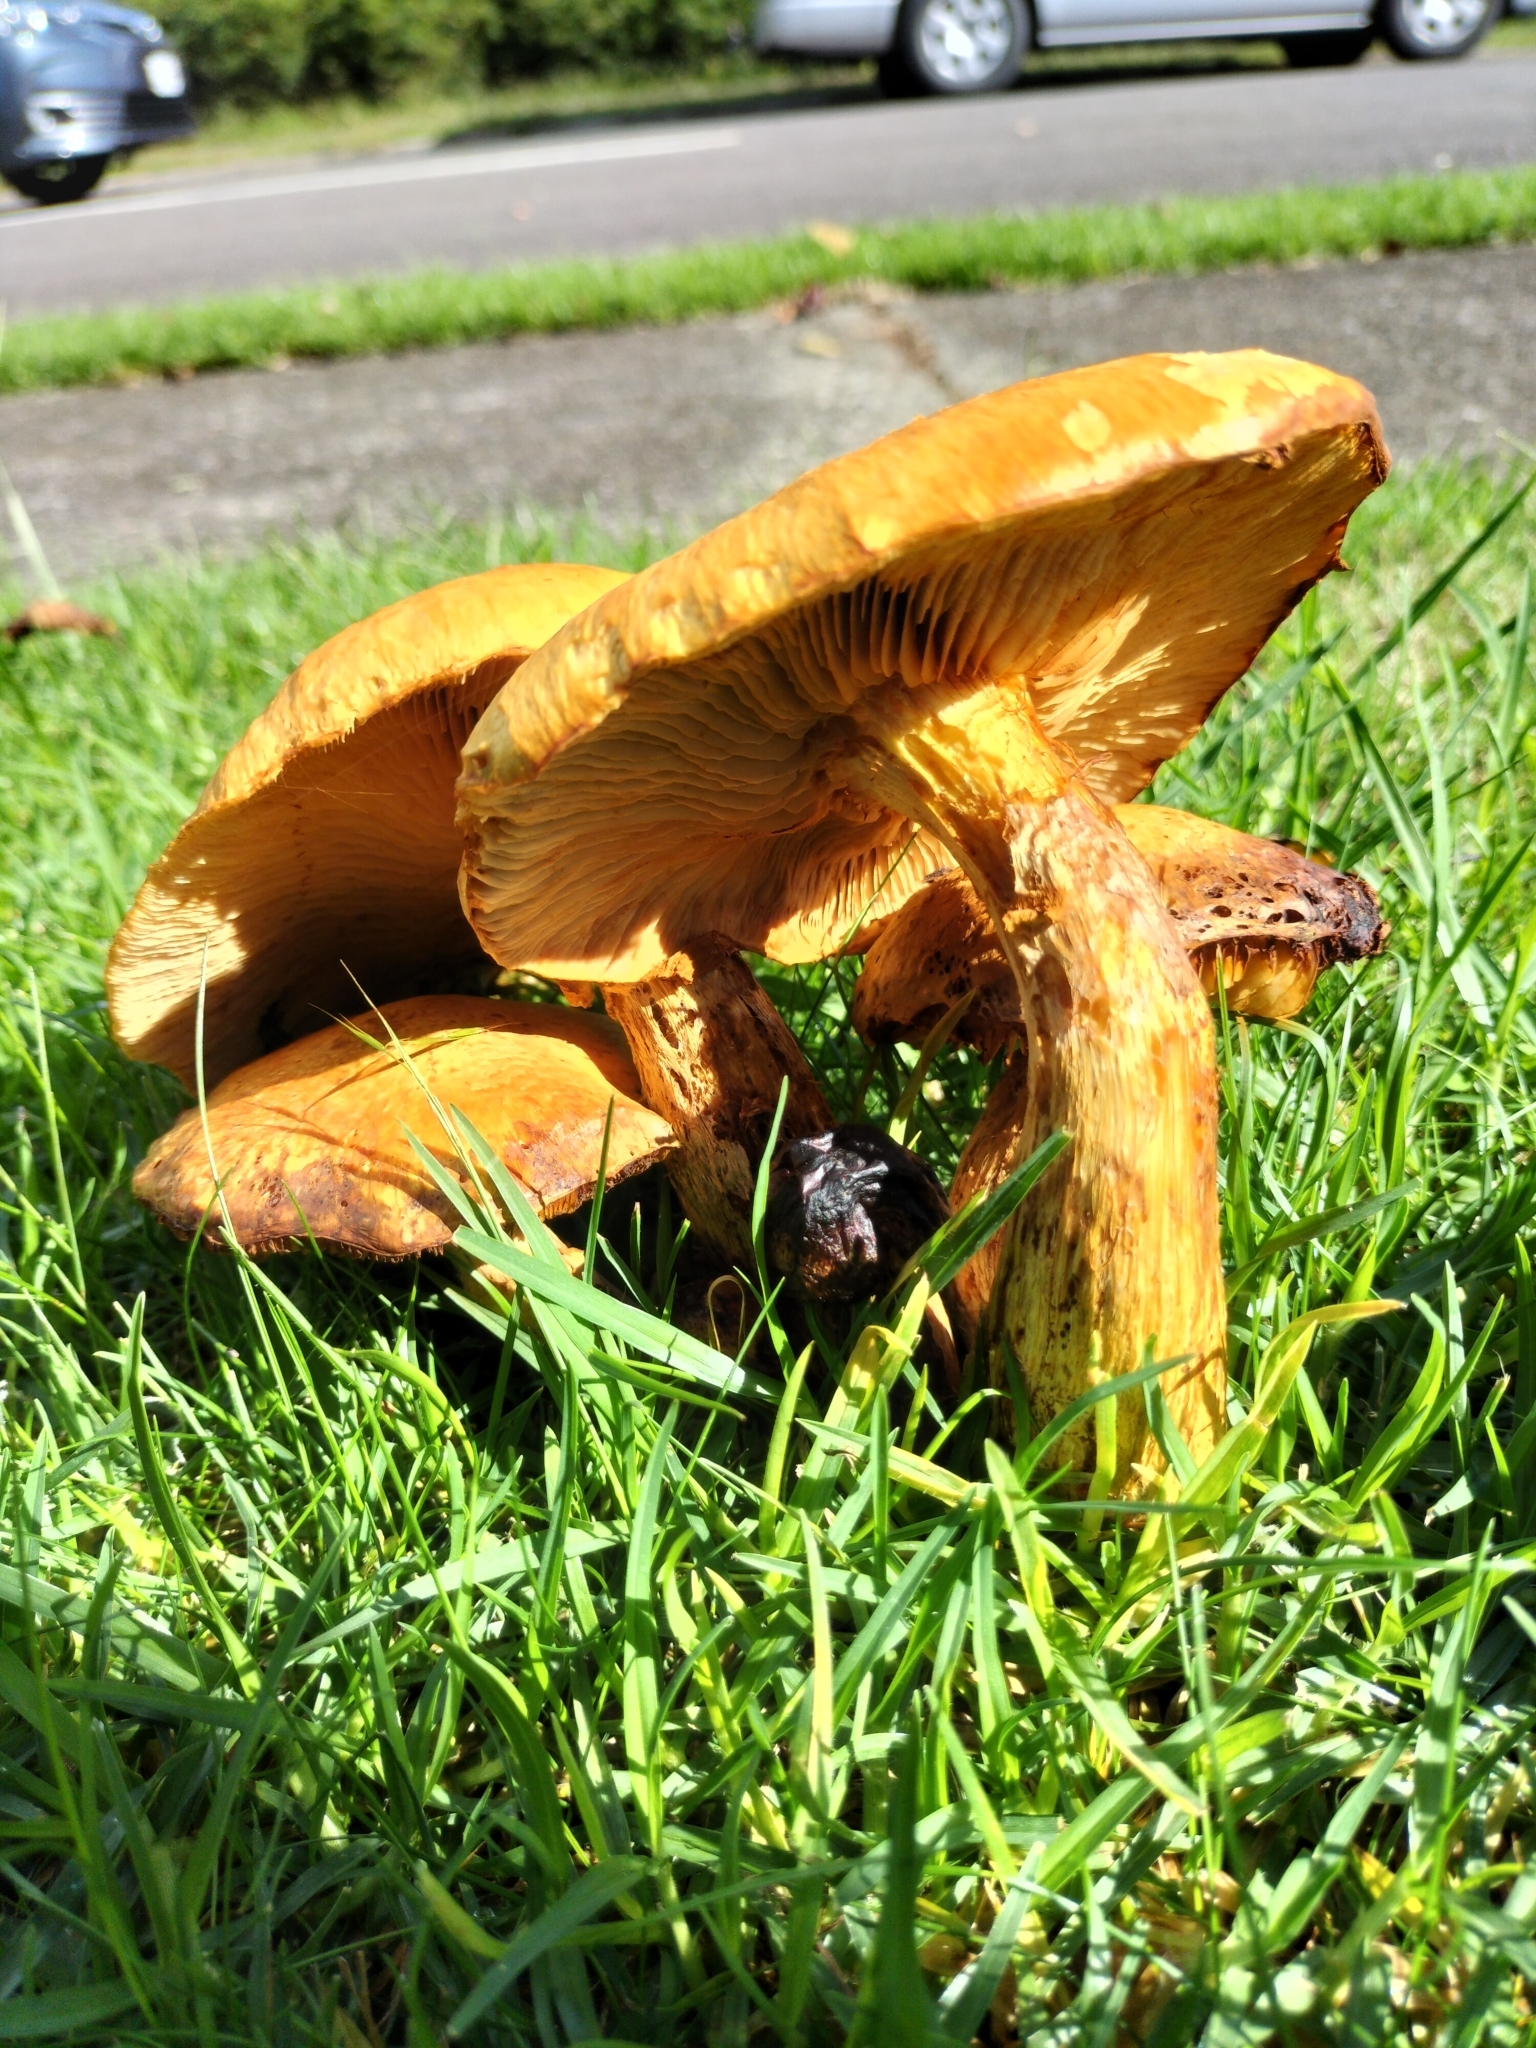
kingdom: Fungi
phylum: Basidiomycota
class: Agaricomycetes
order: Agaricales
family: Hymenogastraceae
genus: Gymnopilus
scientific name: Gymnopilus junonius
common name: Spectacular rustgill
